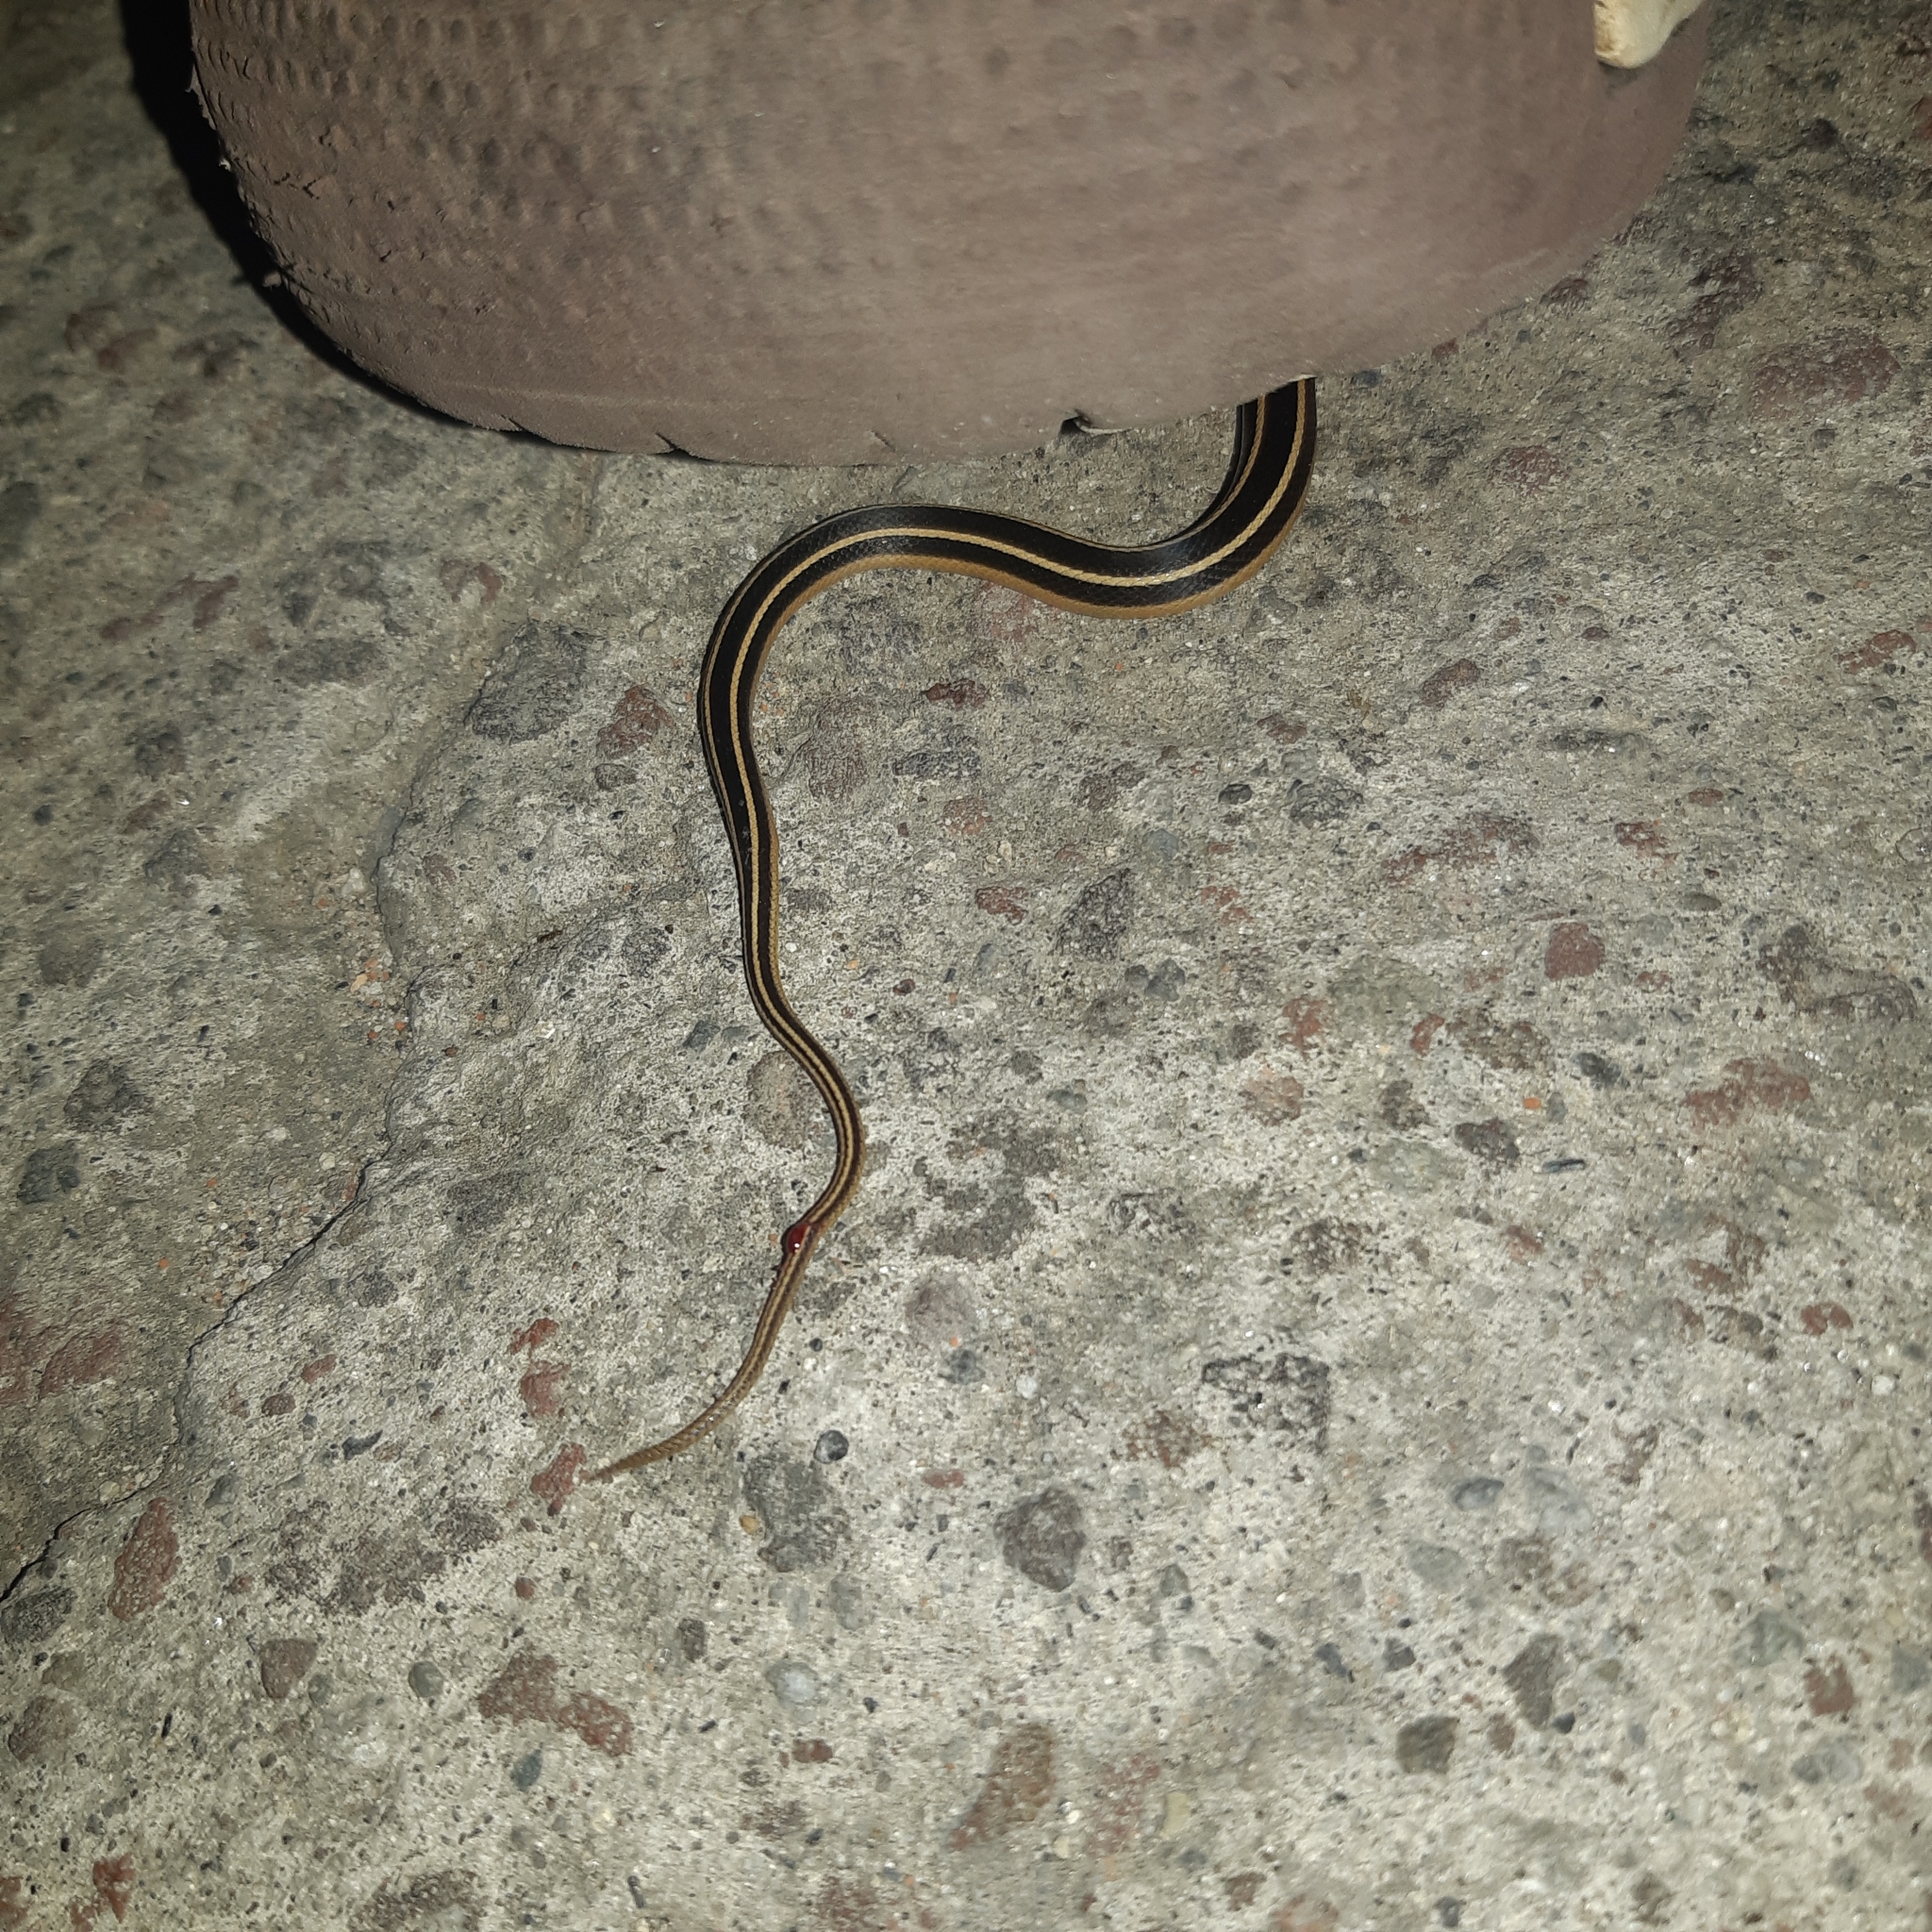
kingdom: Animalia
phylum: Chordata
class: Squamata
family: Colubridae
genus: Coniophanes
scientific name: Coniophanes piceivittis
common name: Cope's black-striped snake
